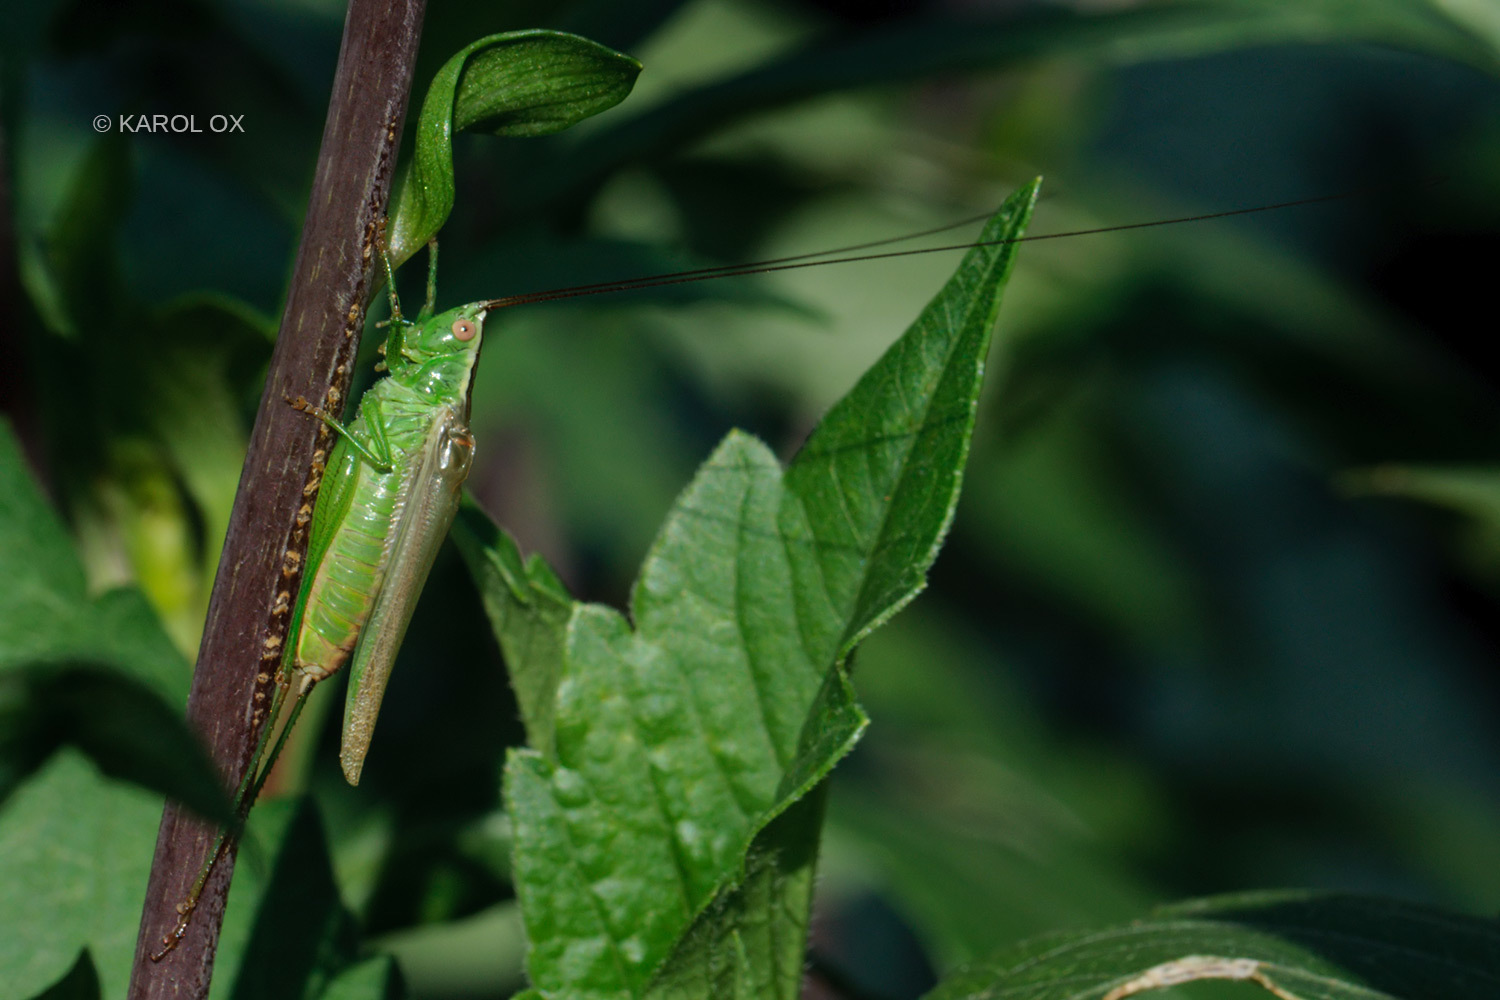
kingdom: Animalia
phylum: Arthropoda
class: Insecta
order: Orthoptera
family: Tettigoniidae
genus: Conocephalus
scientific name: Conocephalus fuscus
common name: Long-winged conehead
